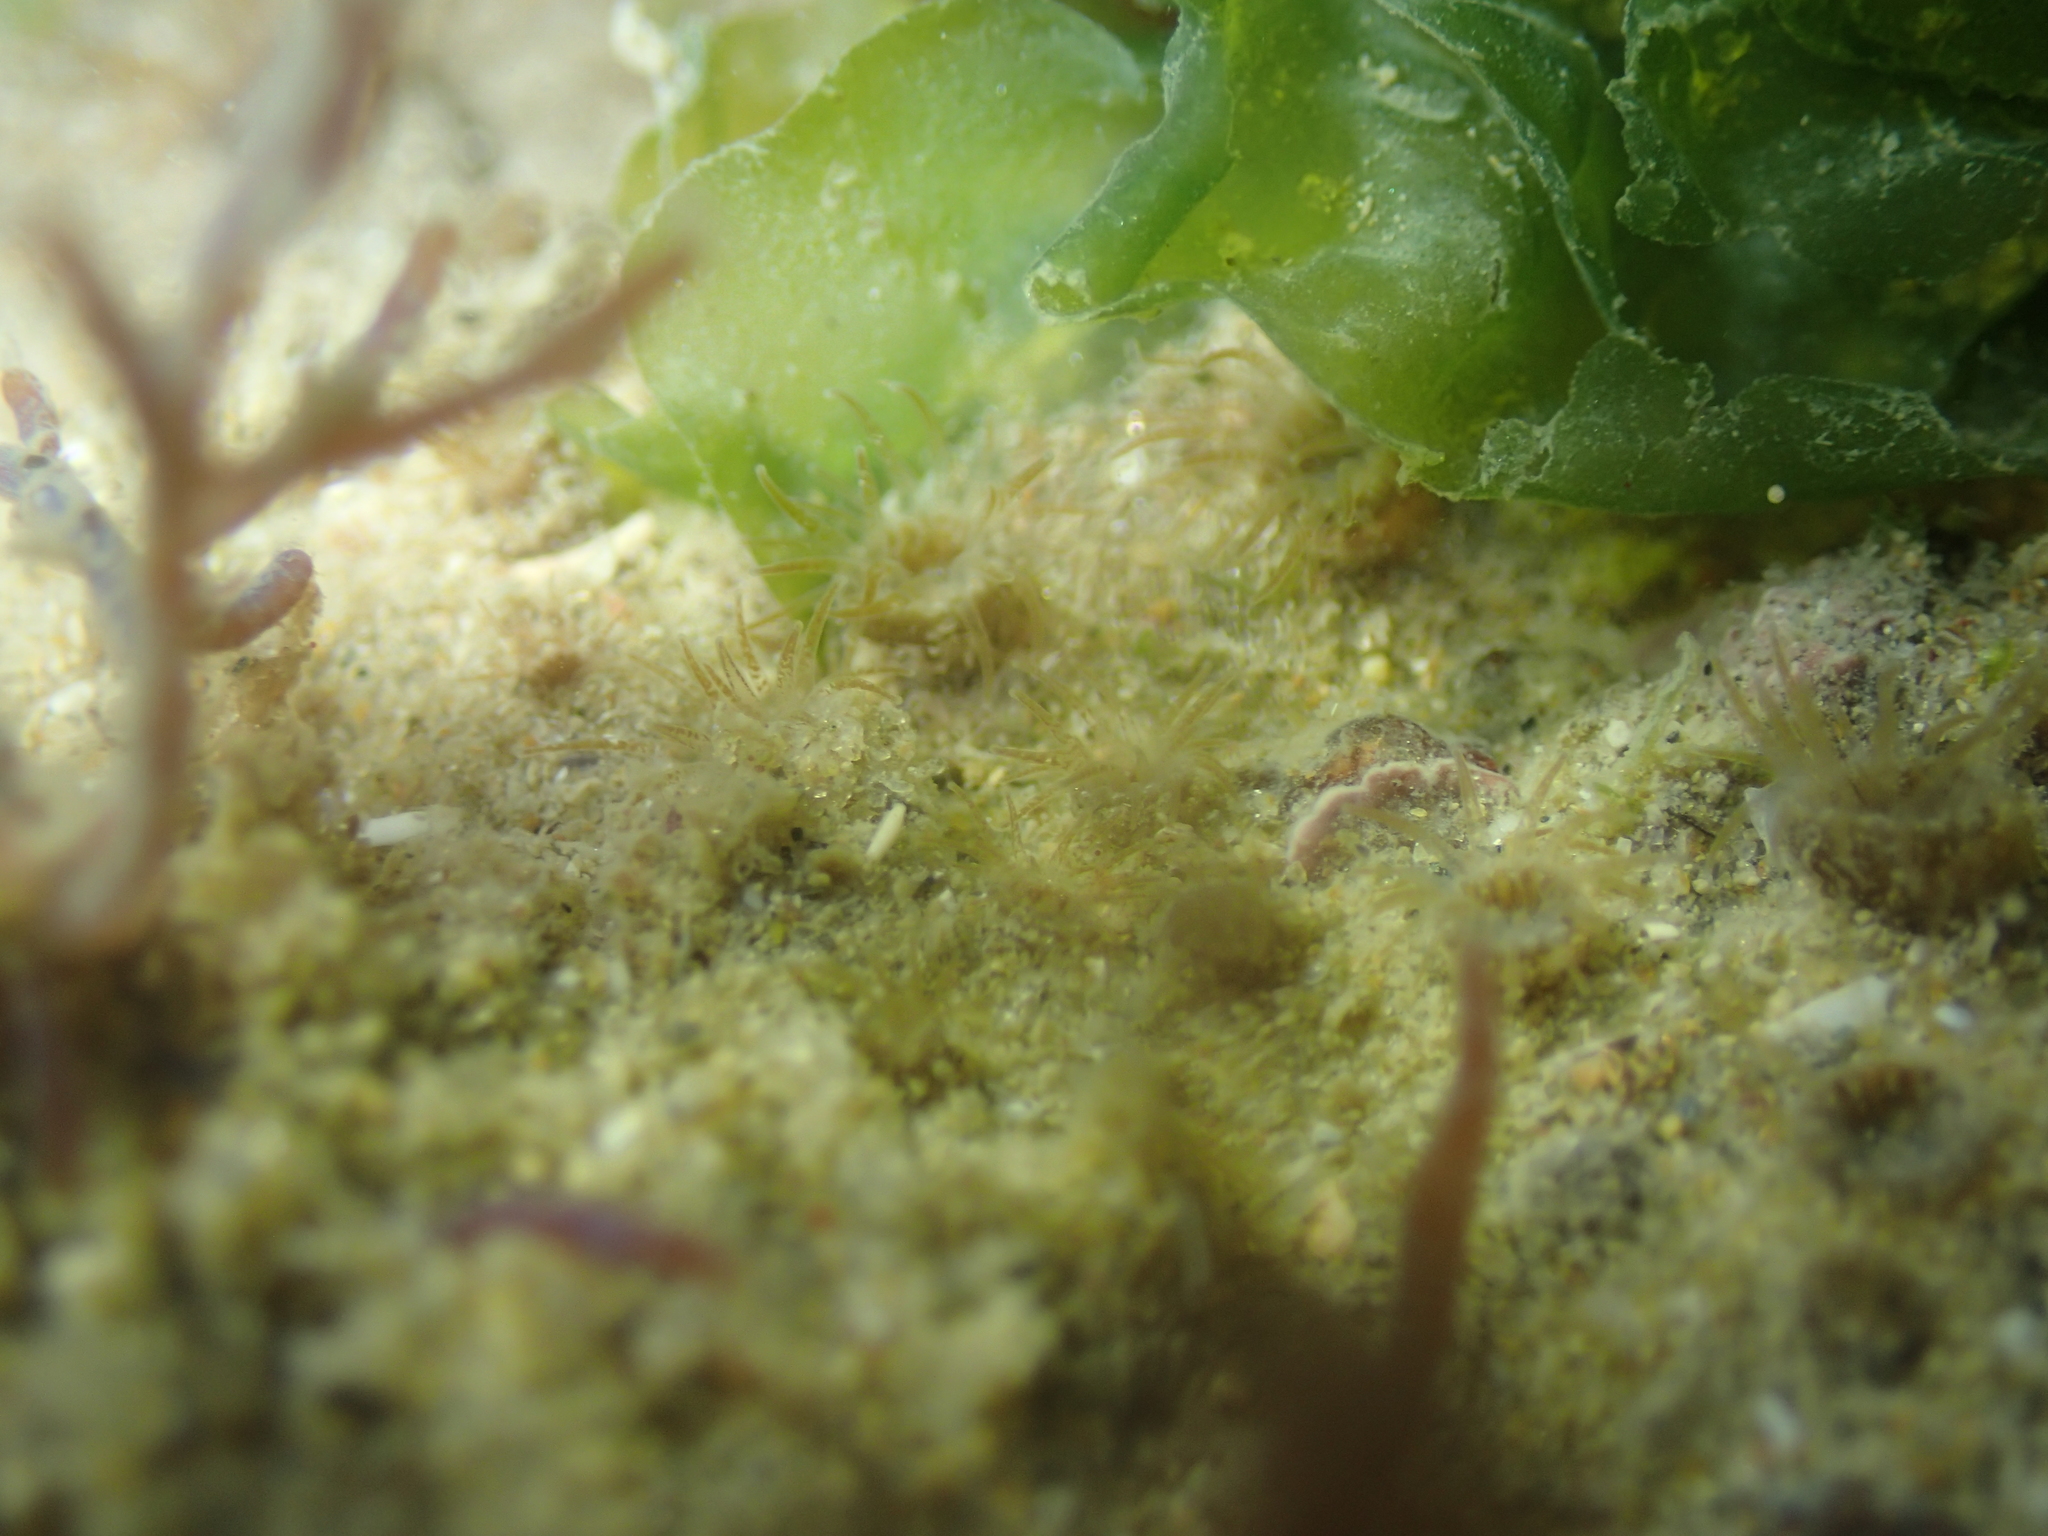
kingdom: Animalia
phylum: Cnidaria
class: Anthozoa
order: Zoantharia
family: Parazoanthidae
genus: Isozoanthus
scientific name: Isozoanthus sulcatus
